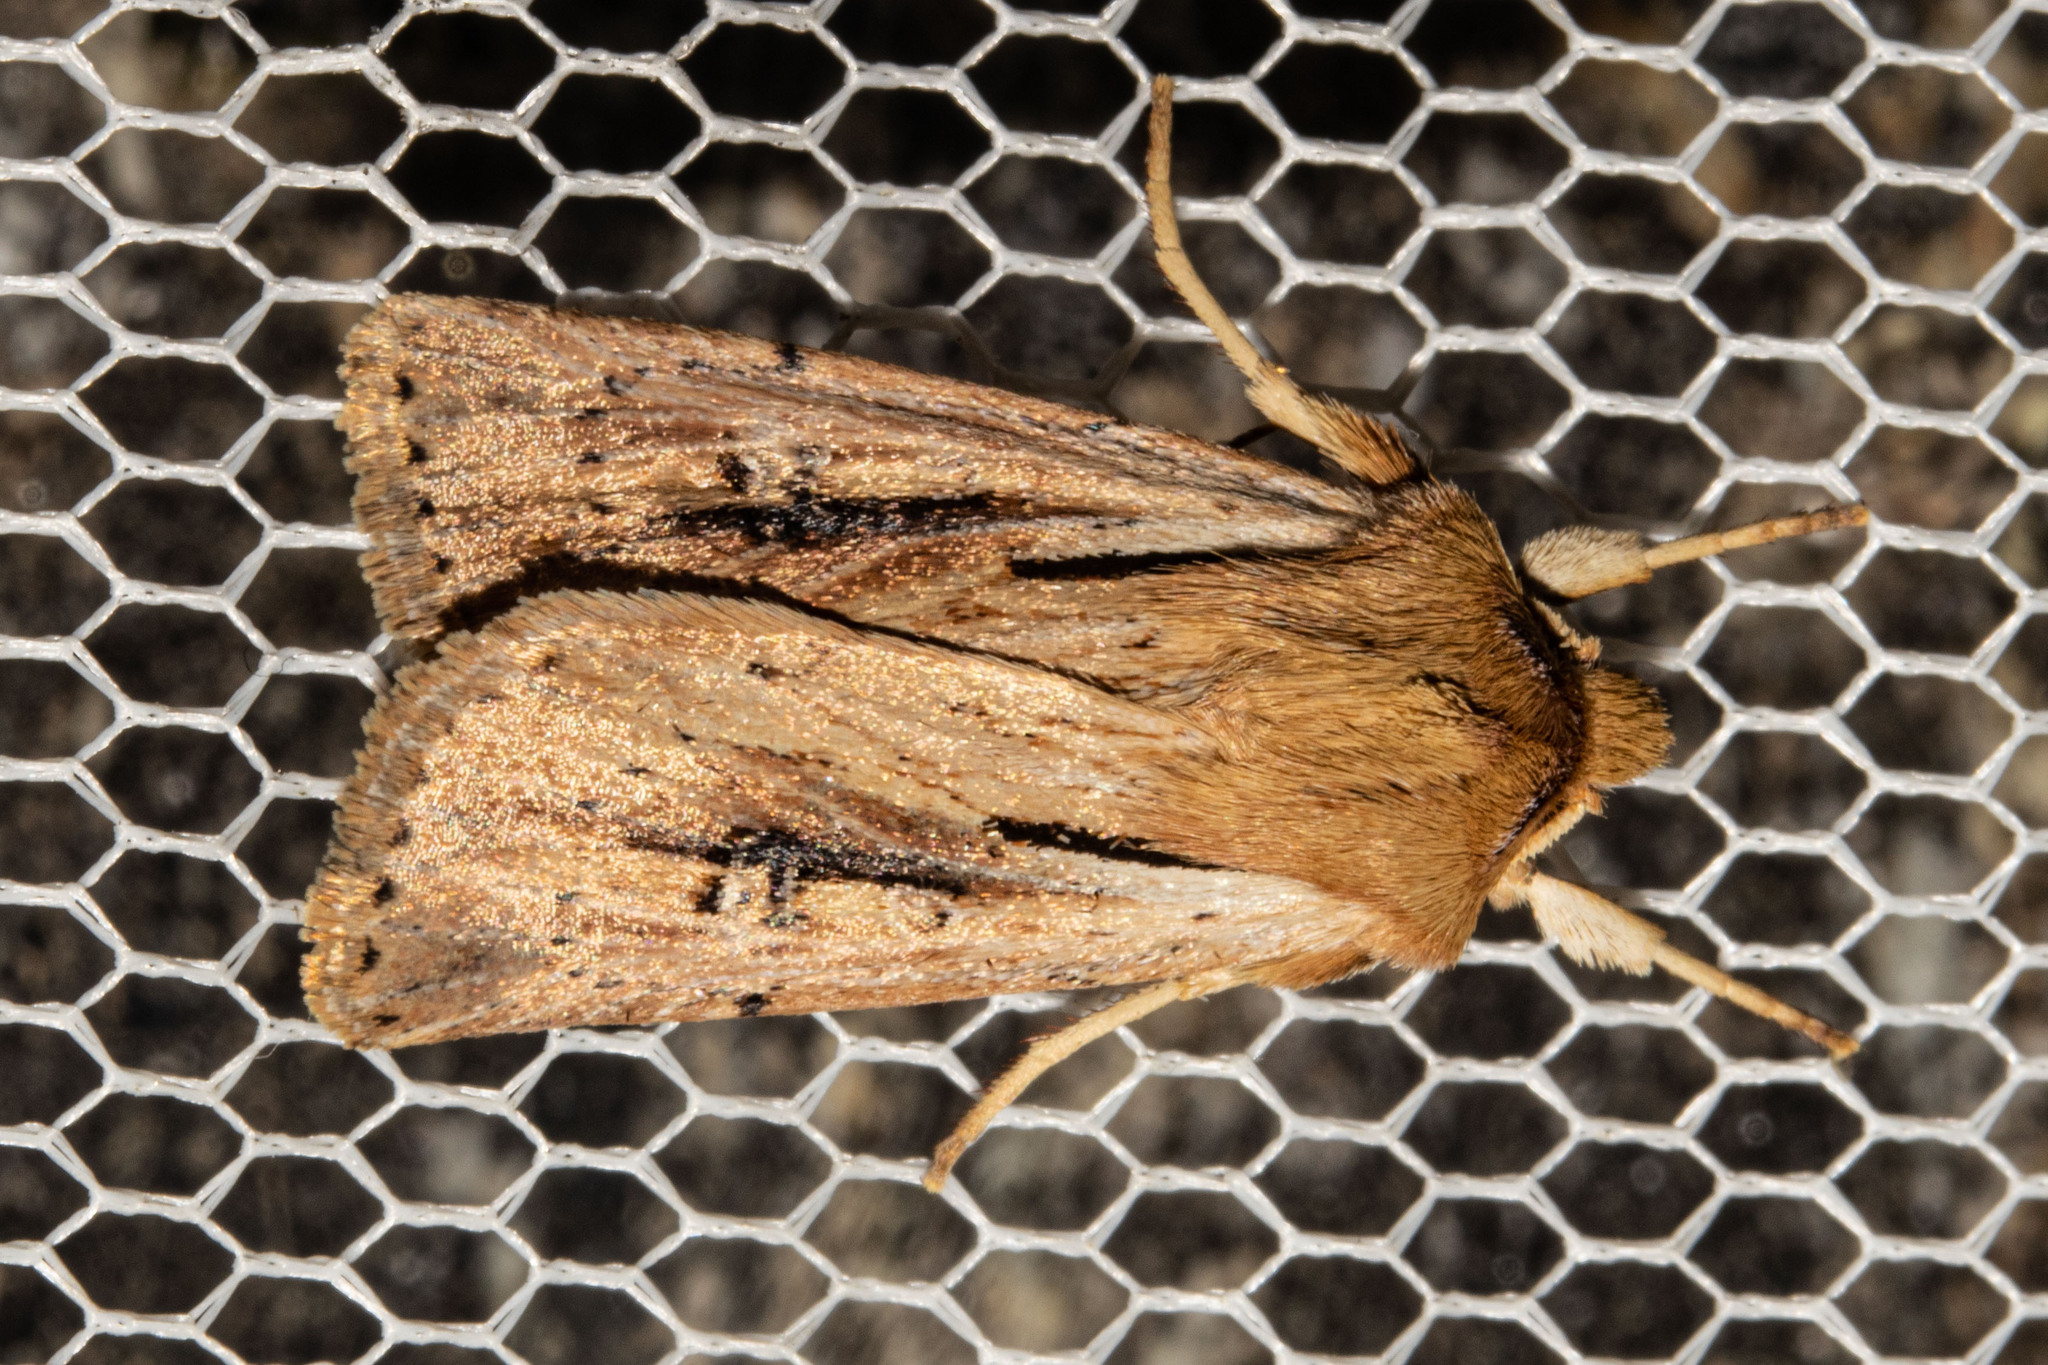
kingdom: Animalia
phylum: Arthropoda
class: Insecta
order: Lepidoptera
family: Noctuidae
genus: Ichneutica
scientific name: Ichneutica propria
